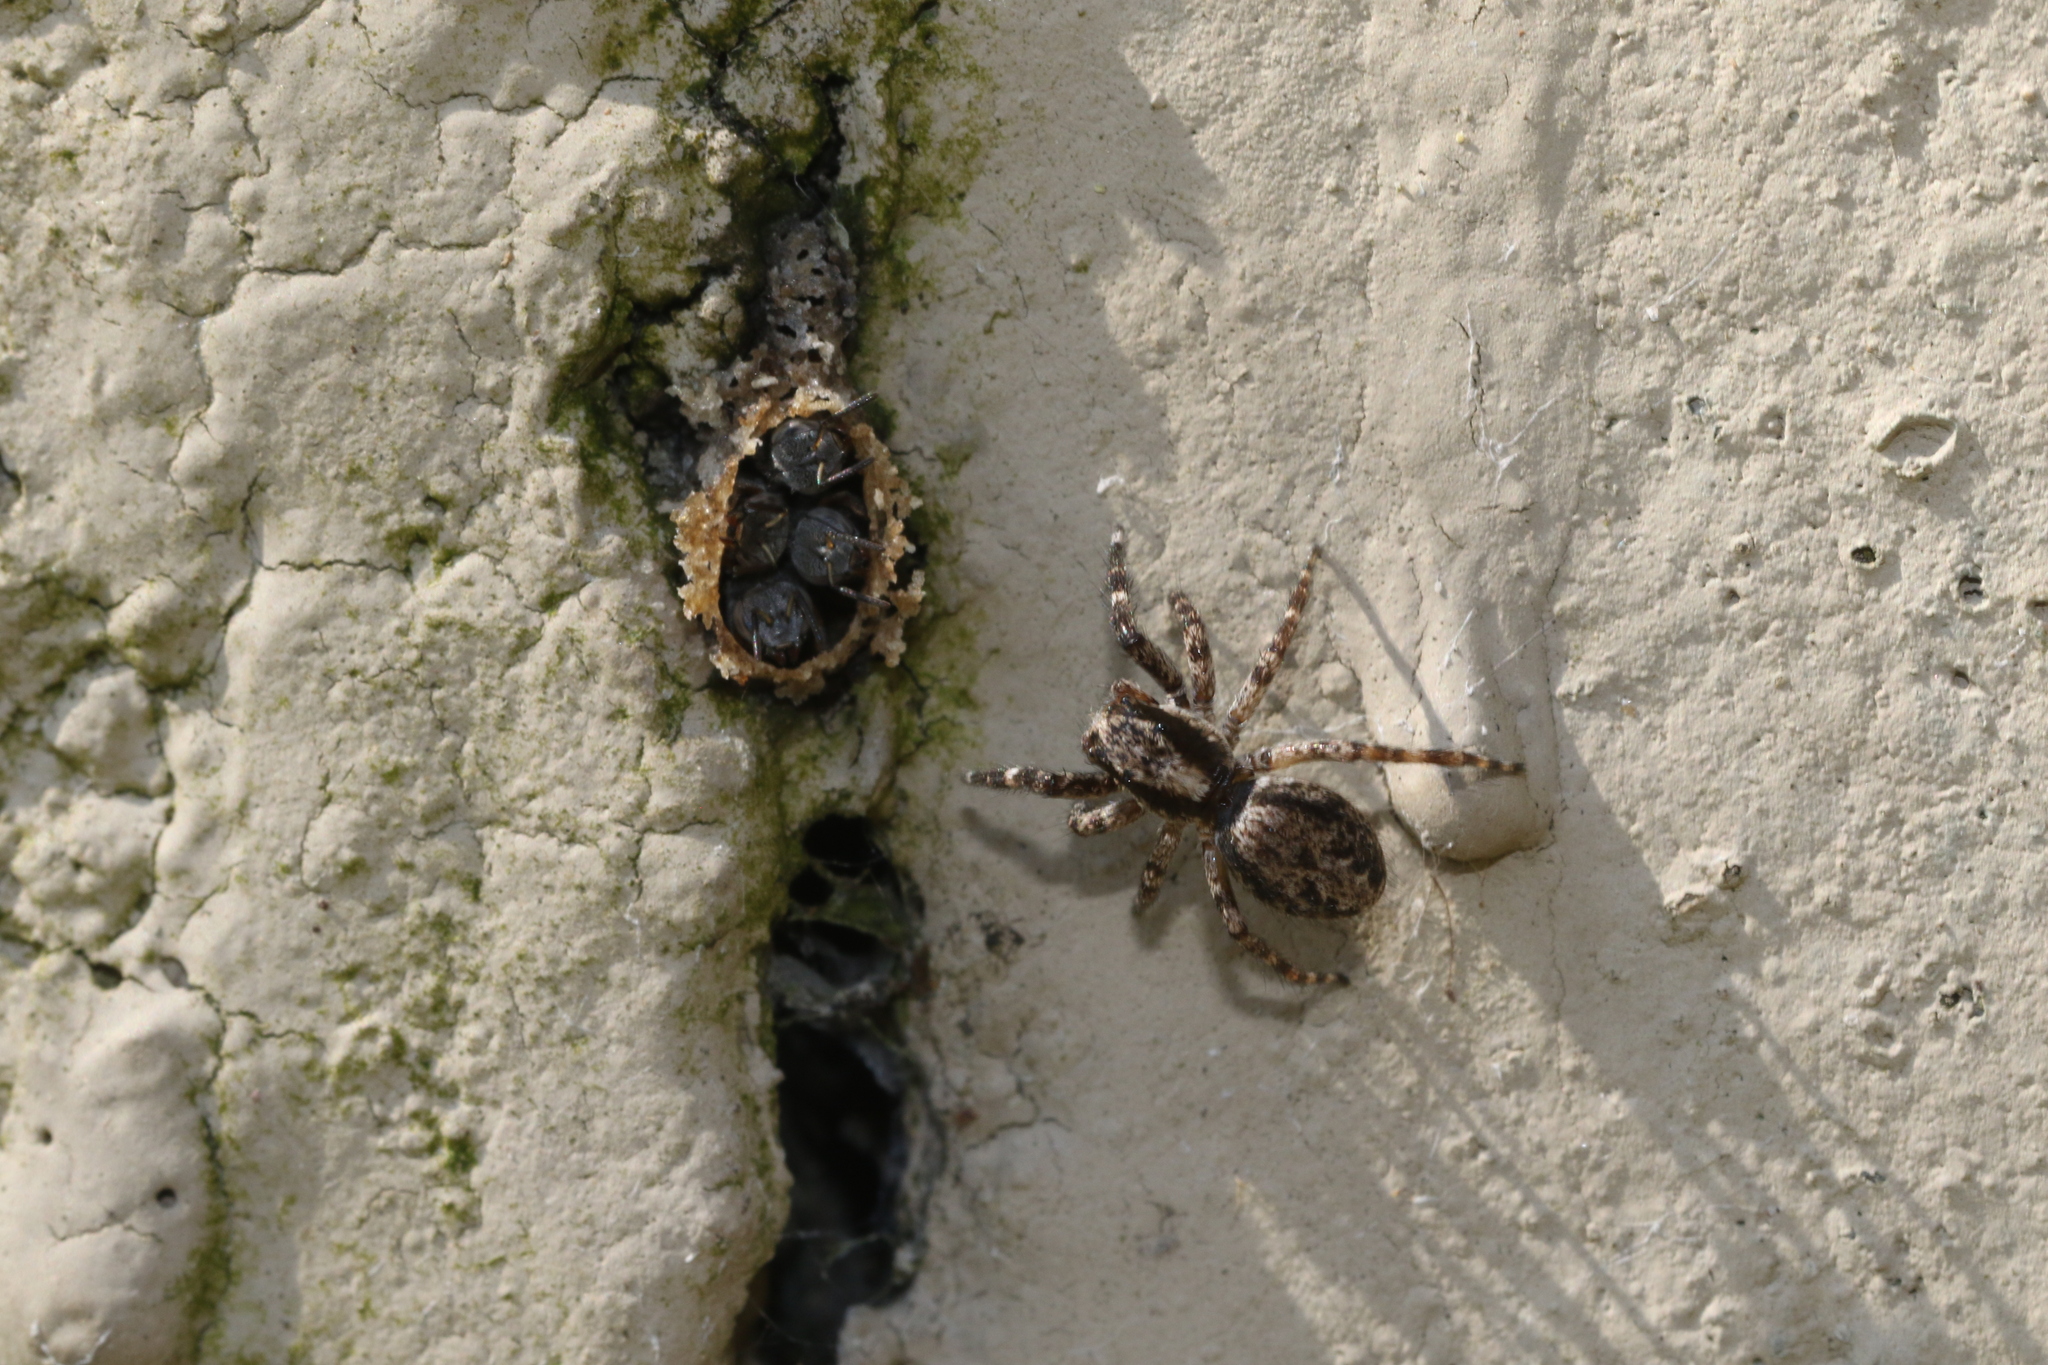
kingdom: Animalia
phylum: Arthropoda
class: Insecta
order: Hymenoptera
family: Apidae
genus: Friesella
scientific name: Friesella schrottkyi
